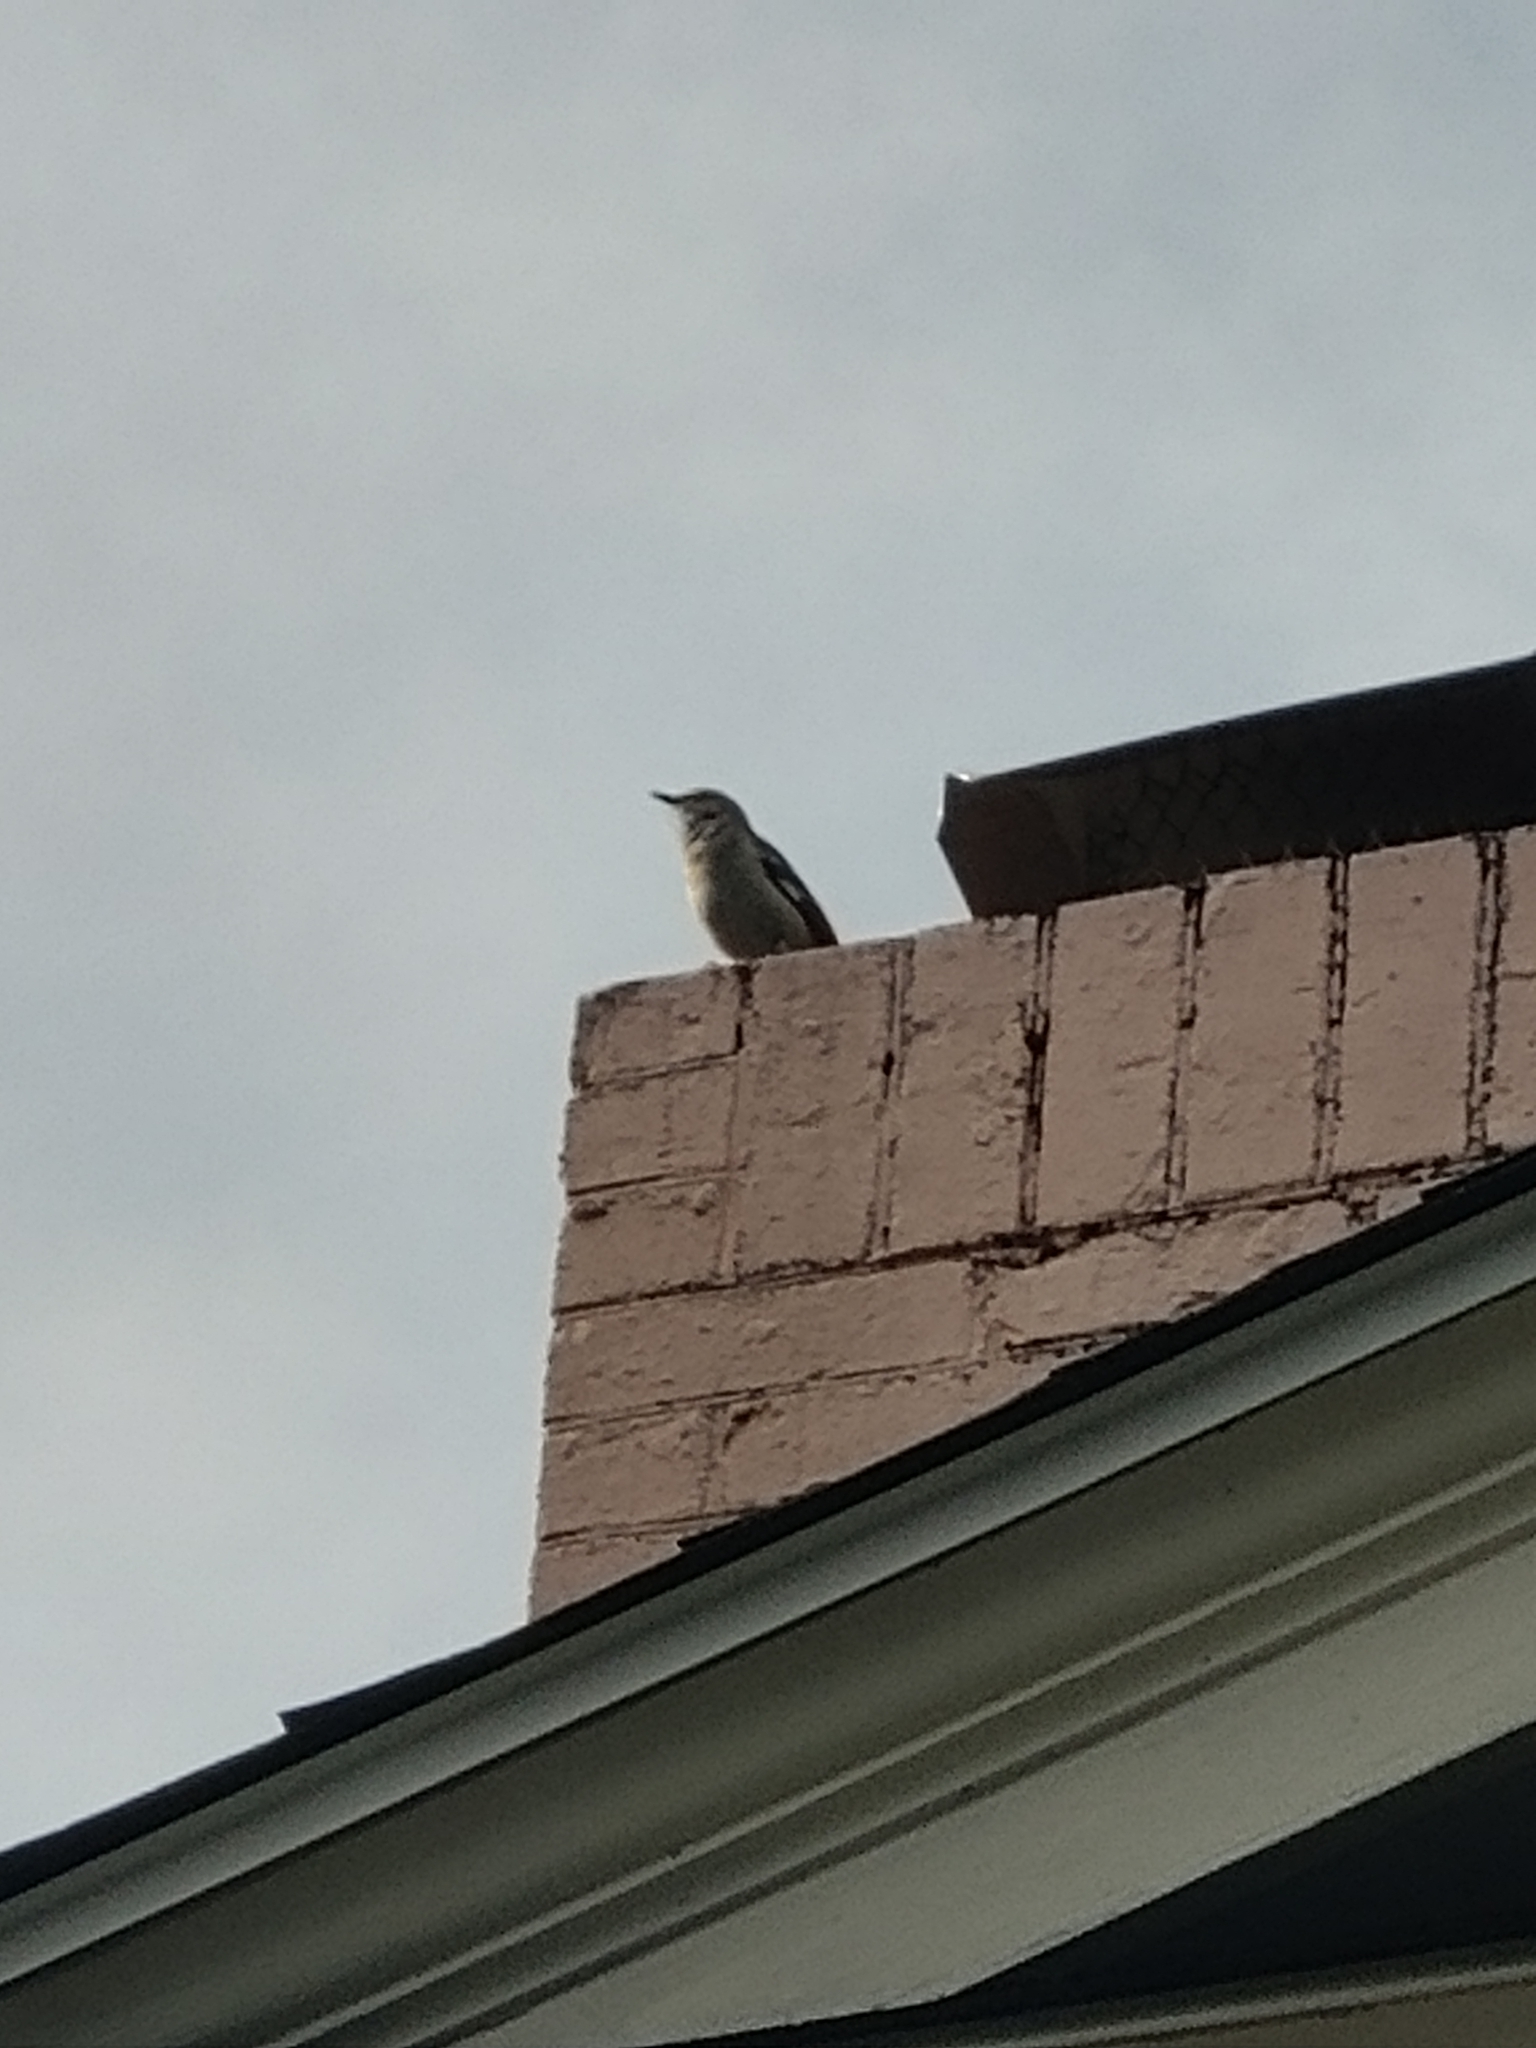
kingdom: Animalia
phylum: Chordata
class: Aves
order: Passeriformes
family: Mimidae
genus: Mimus
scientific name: Mimus polyglottos
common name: Northern mockingbird
